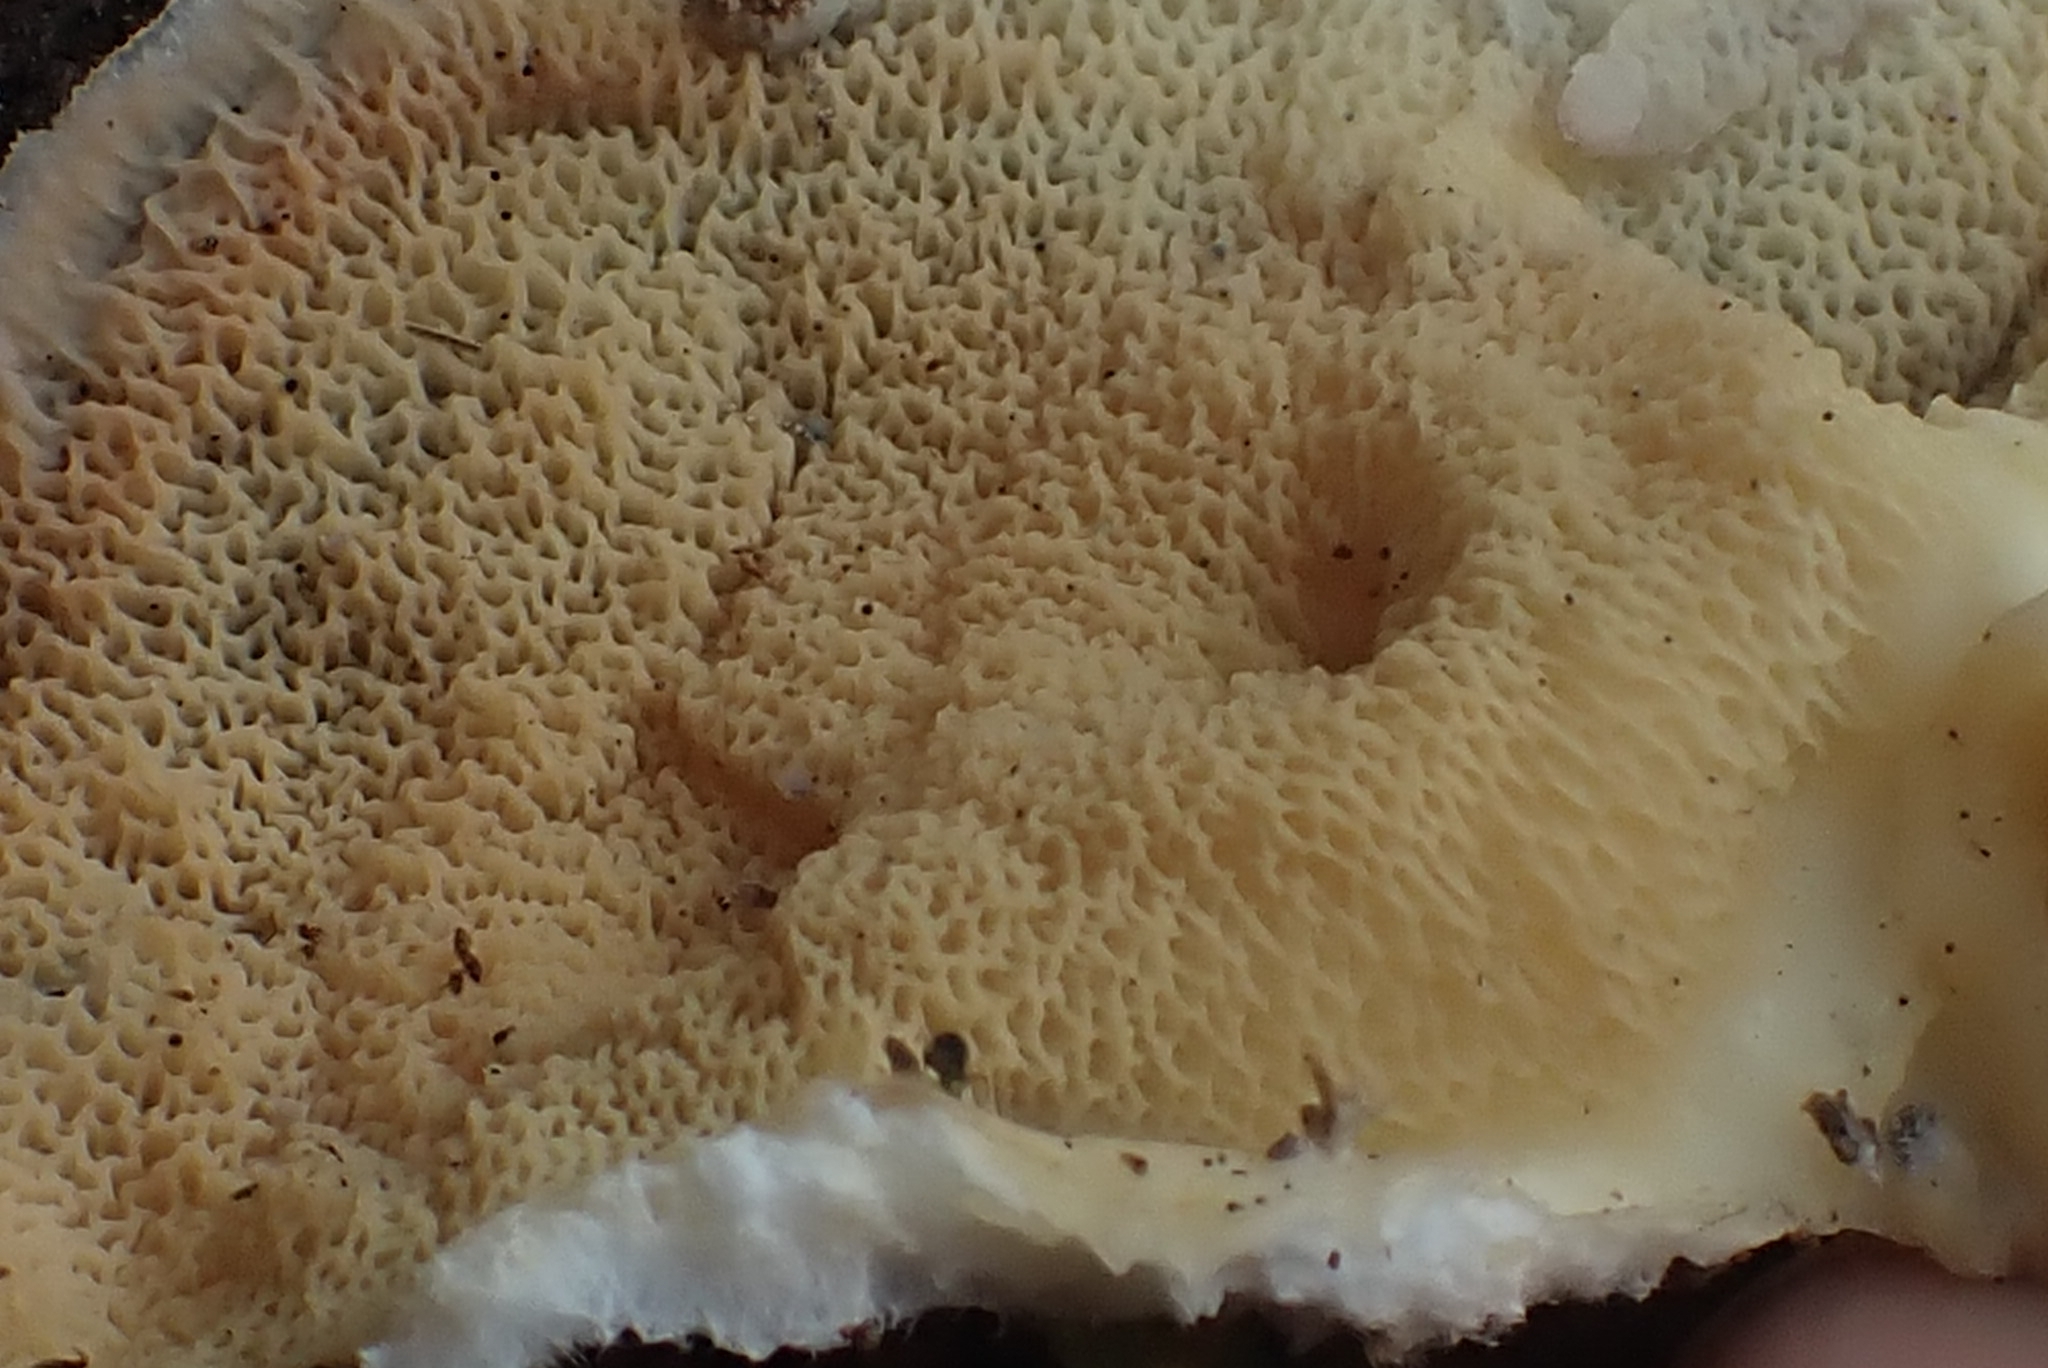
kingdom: Fungi
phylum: Basidiomycota
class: Agaricomycetes
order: Polyporales
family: Meruliaceae
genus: Phlebia
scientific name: Phlebia tremellosa
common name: Jelly rot
